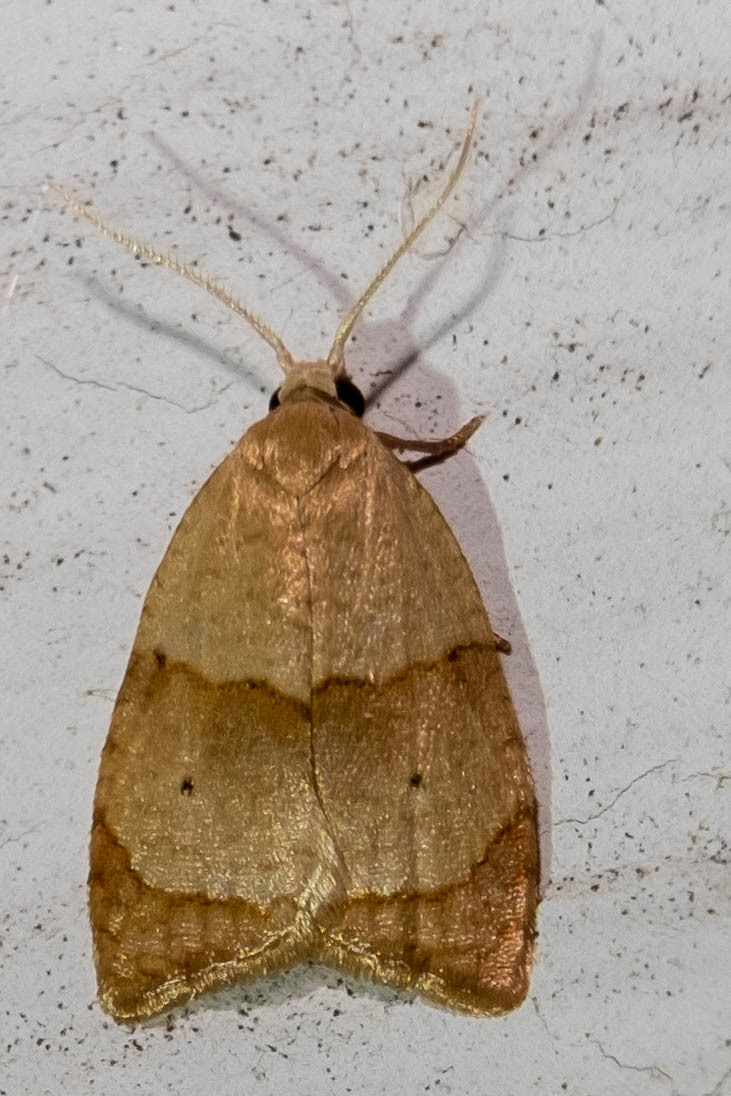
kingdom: Animalia
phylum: Arthropoda
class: Insecta
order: Lepidoptera
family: Tortricidae
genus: Coelostathma
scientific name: Coelostathma discopunctana
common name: Batman moth
